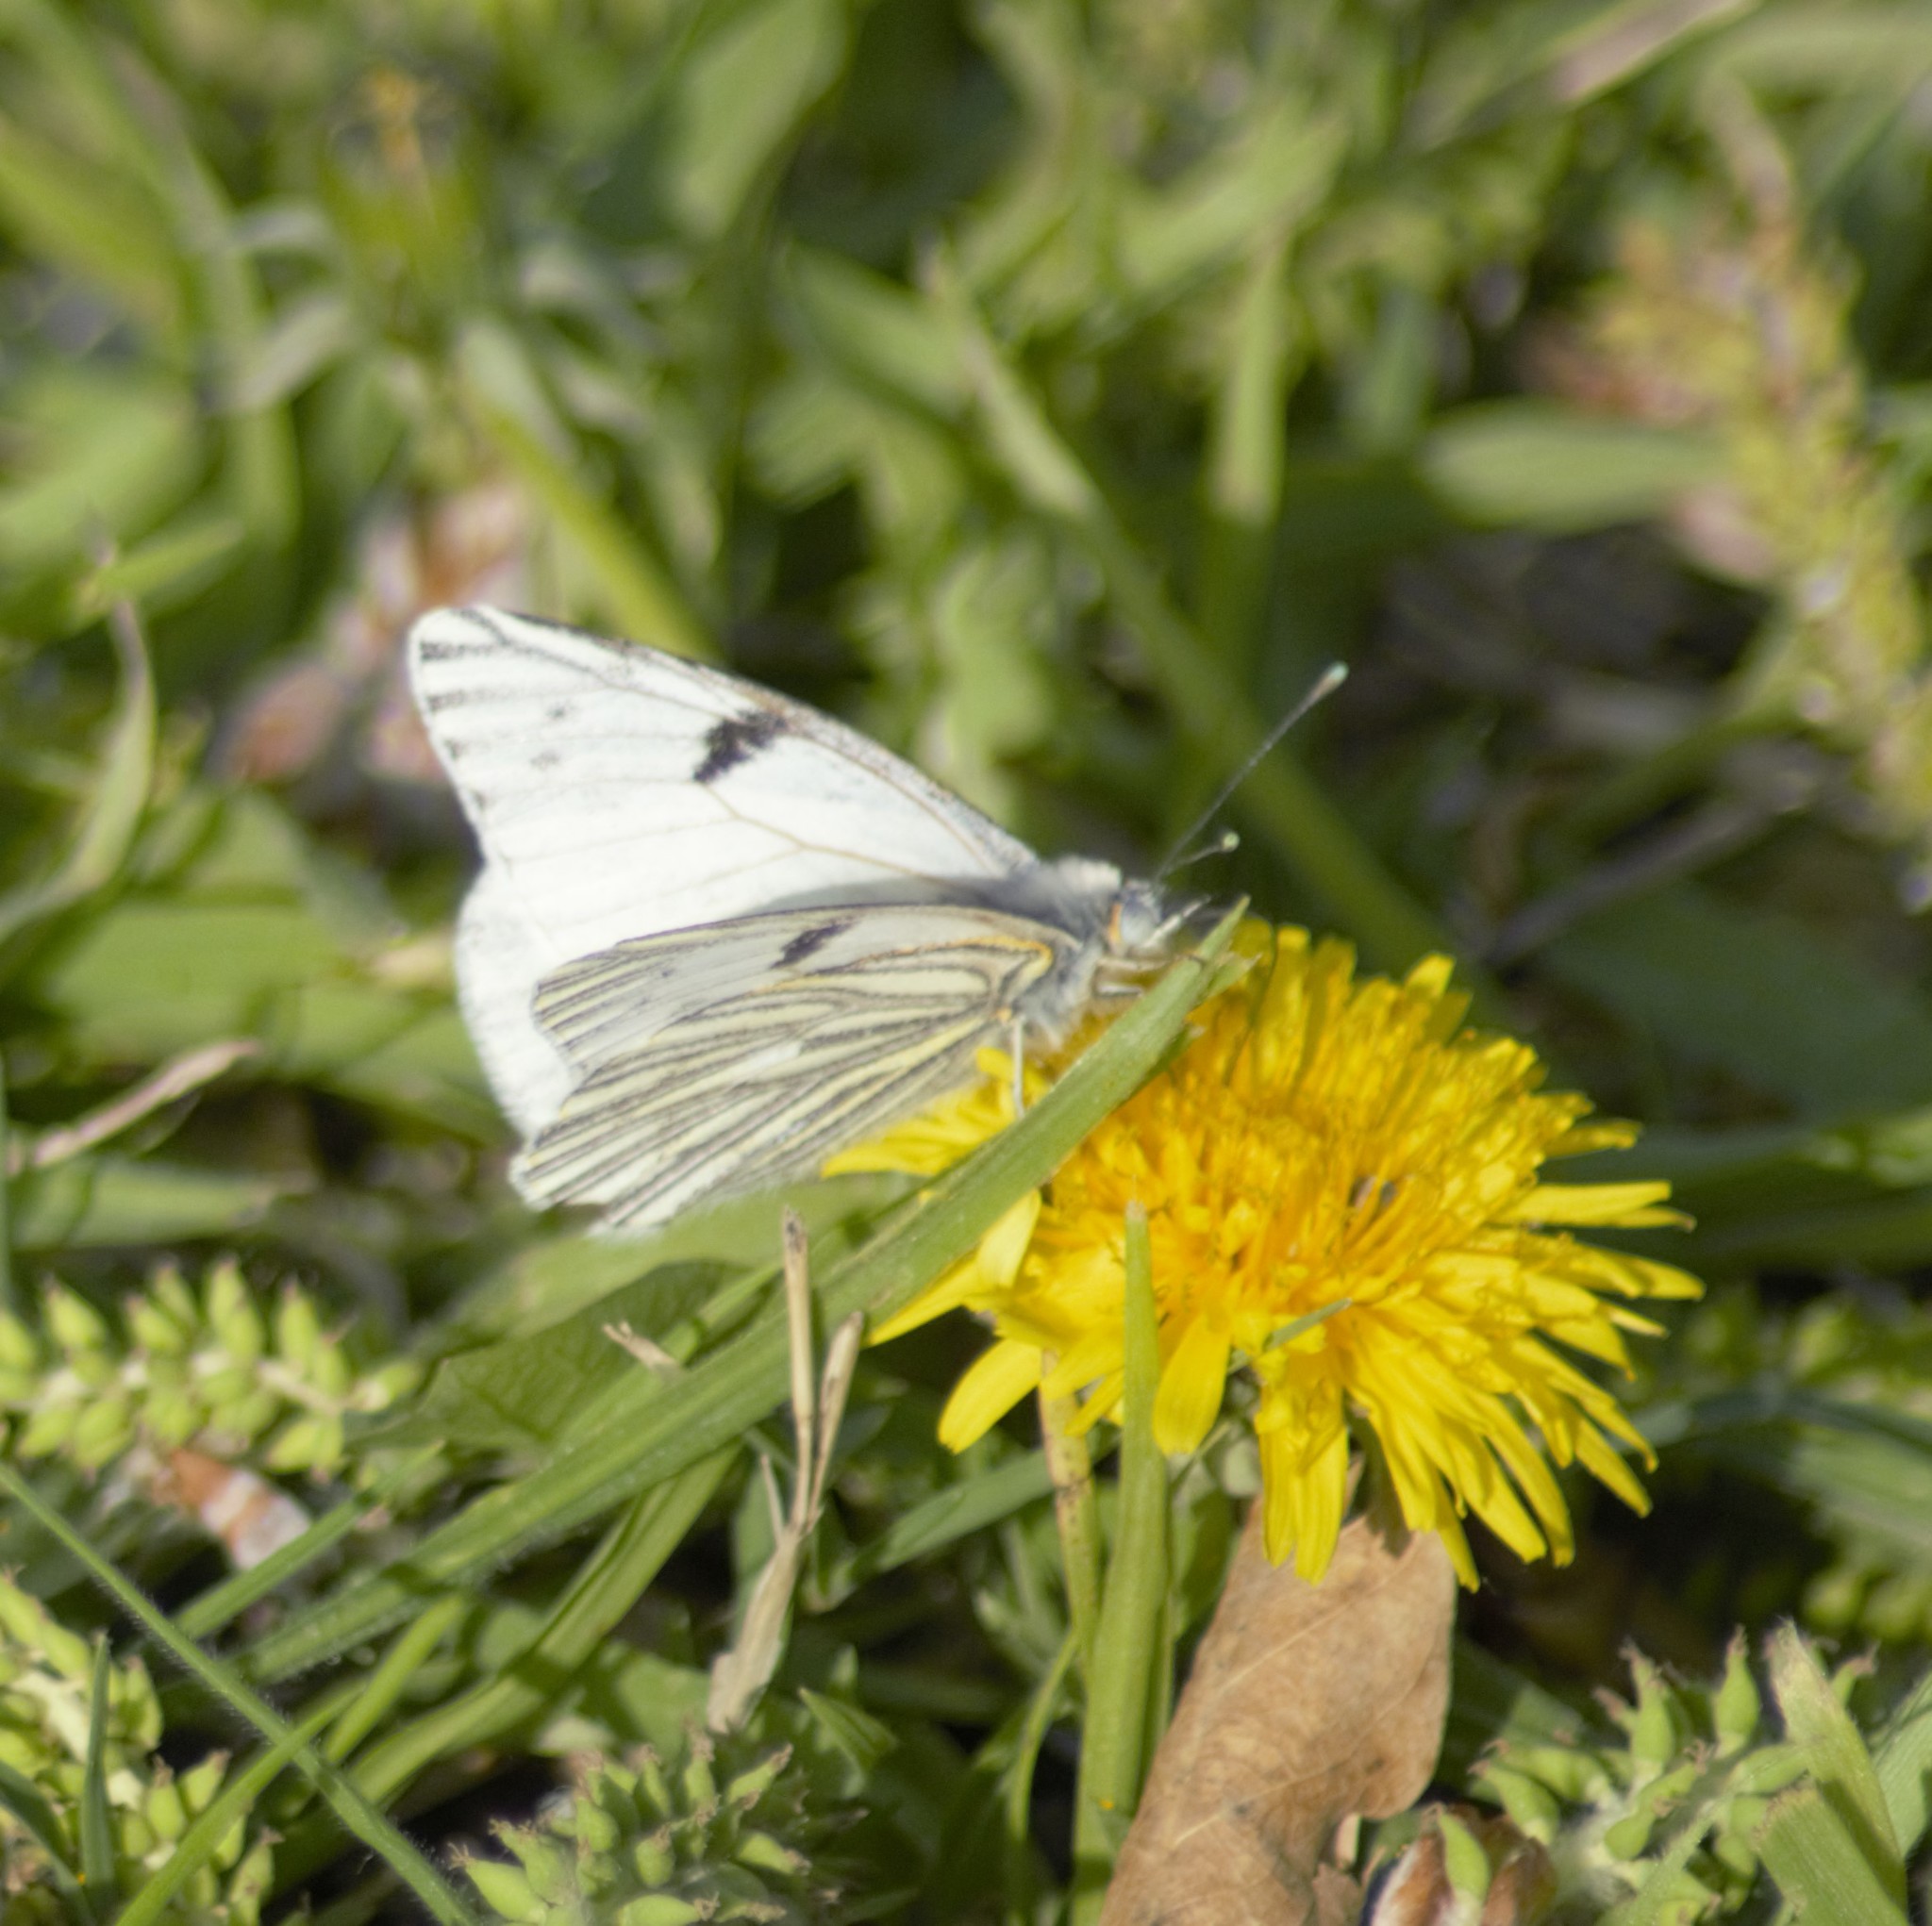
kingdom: Animalia
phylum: Arthropoda
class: Insecta
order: Lepidoptera
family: Pieridae
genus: Tatochila
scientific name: Tatochila mercedis
